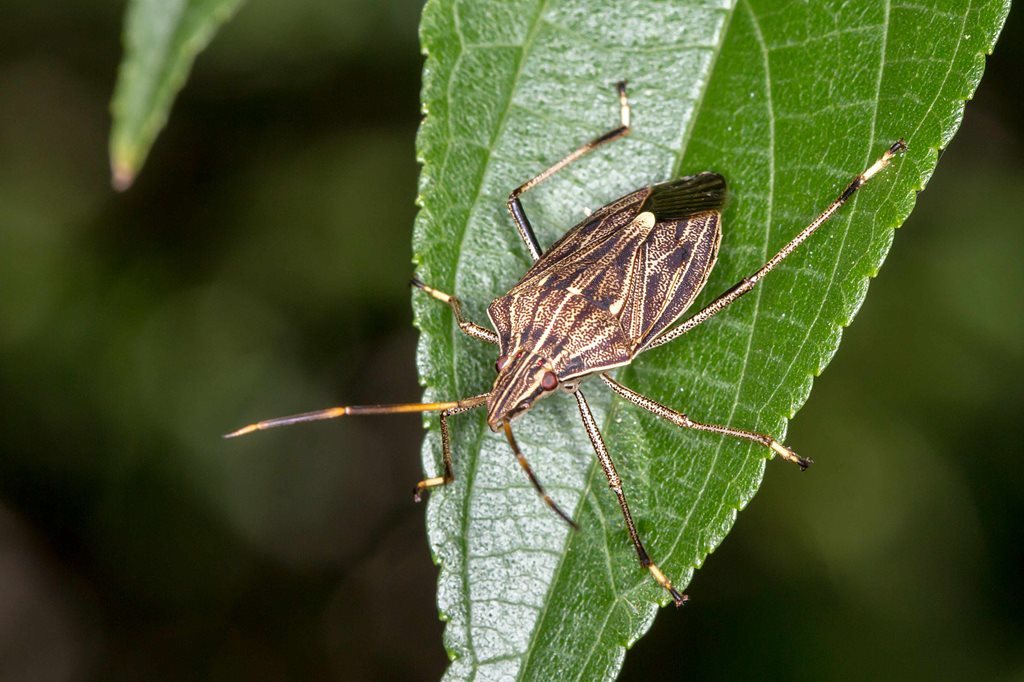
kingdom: Animalia
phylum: Arthropoda
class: Insecta
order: Hemiptera
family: Pentatomidae
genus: Poecilometis
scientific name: Poecilometis
